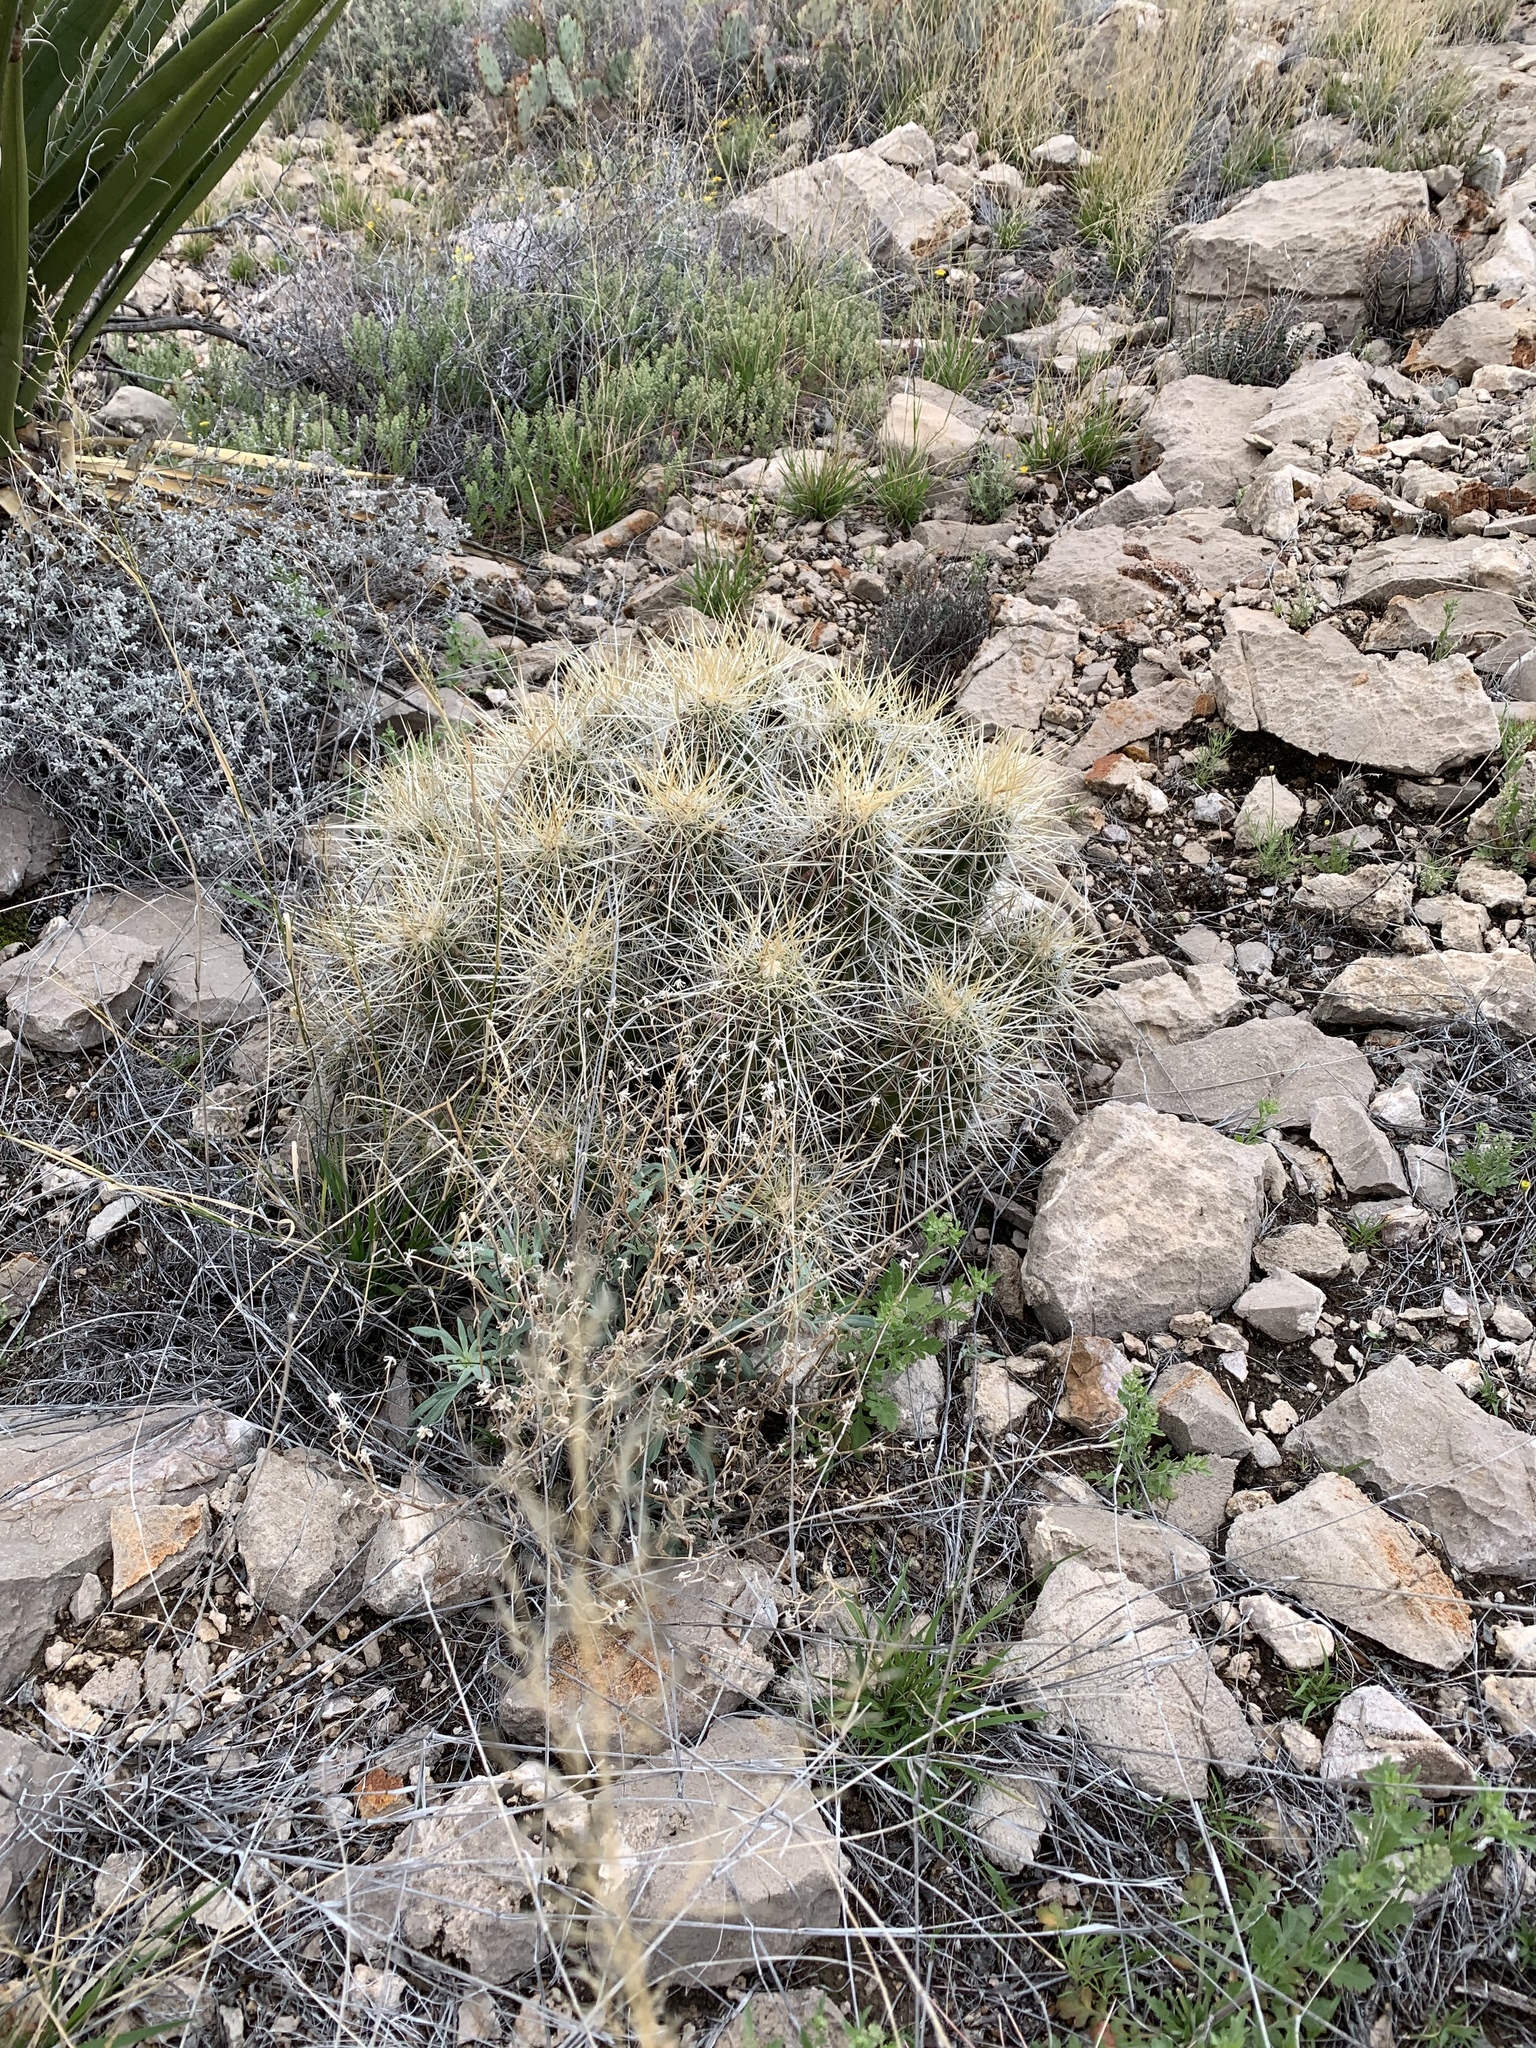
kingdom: Plantae
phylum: Tracheophyta
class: Magnoliopsida
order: Caryophyllales
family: Cactaceae
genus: Echinocereus
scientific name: Echinocereus stramineus
